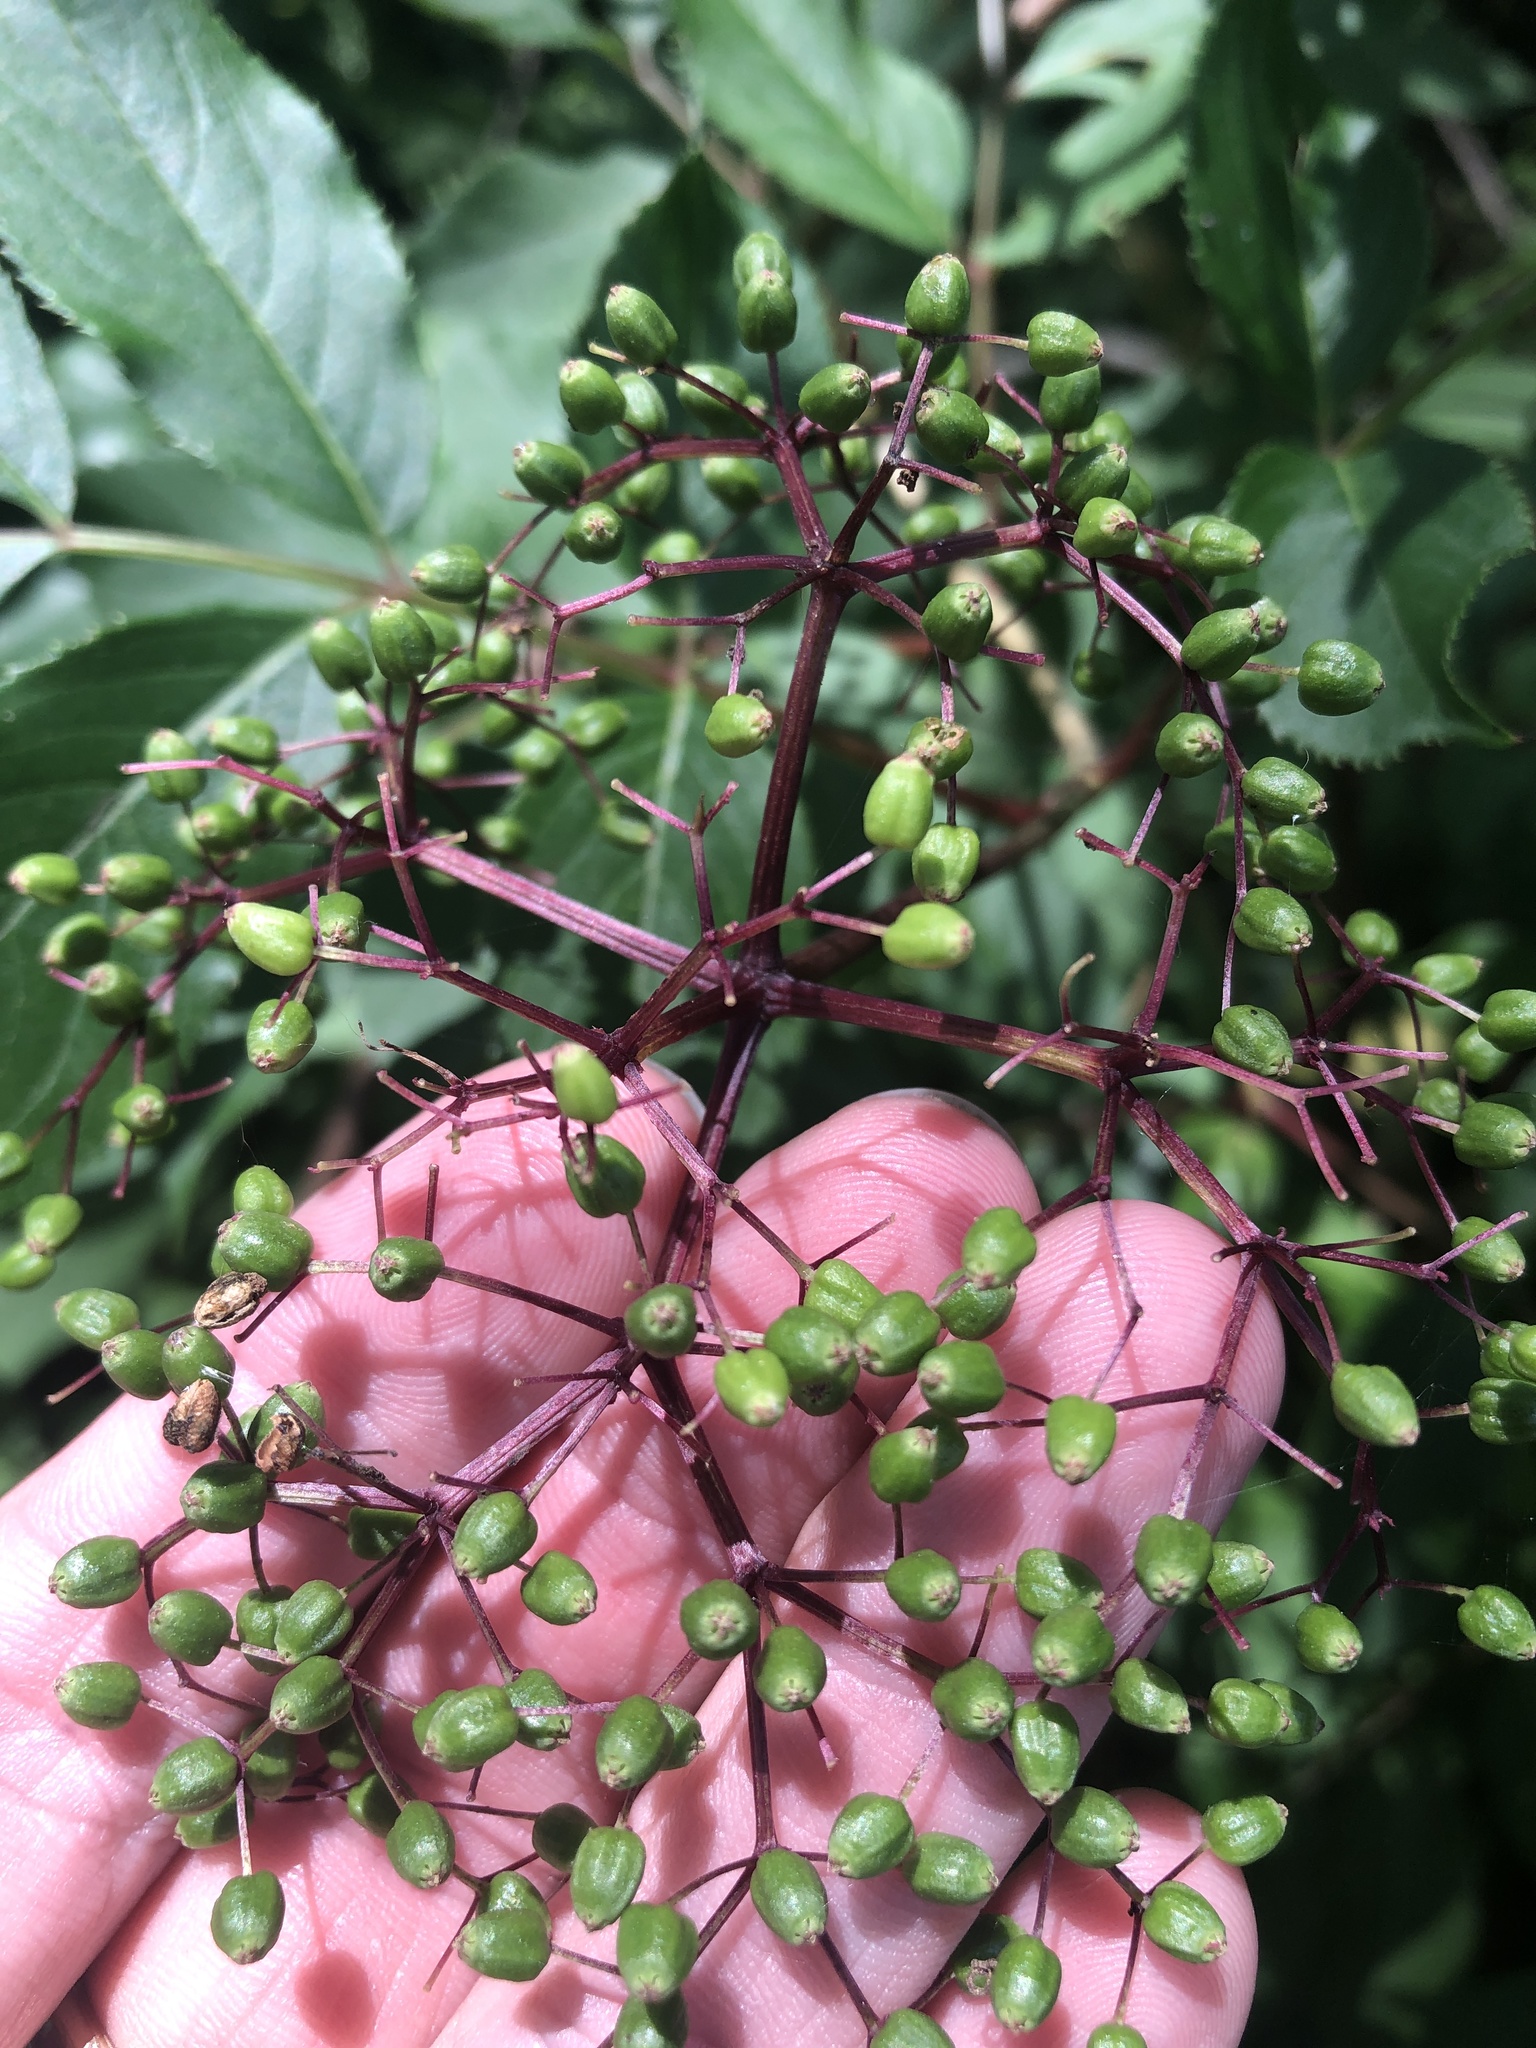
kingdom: Plantae
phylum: Tracheophyta
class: Magnoliopsida
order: Dipsacales
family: Viburnaceae
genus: Sambucus
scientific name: Sambucus canadensis
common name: American elder
